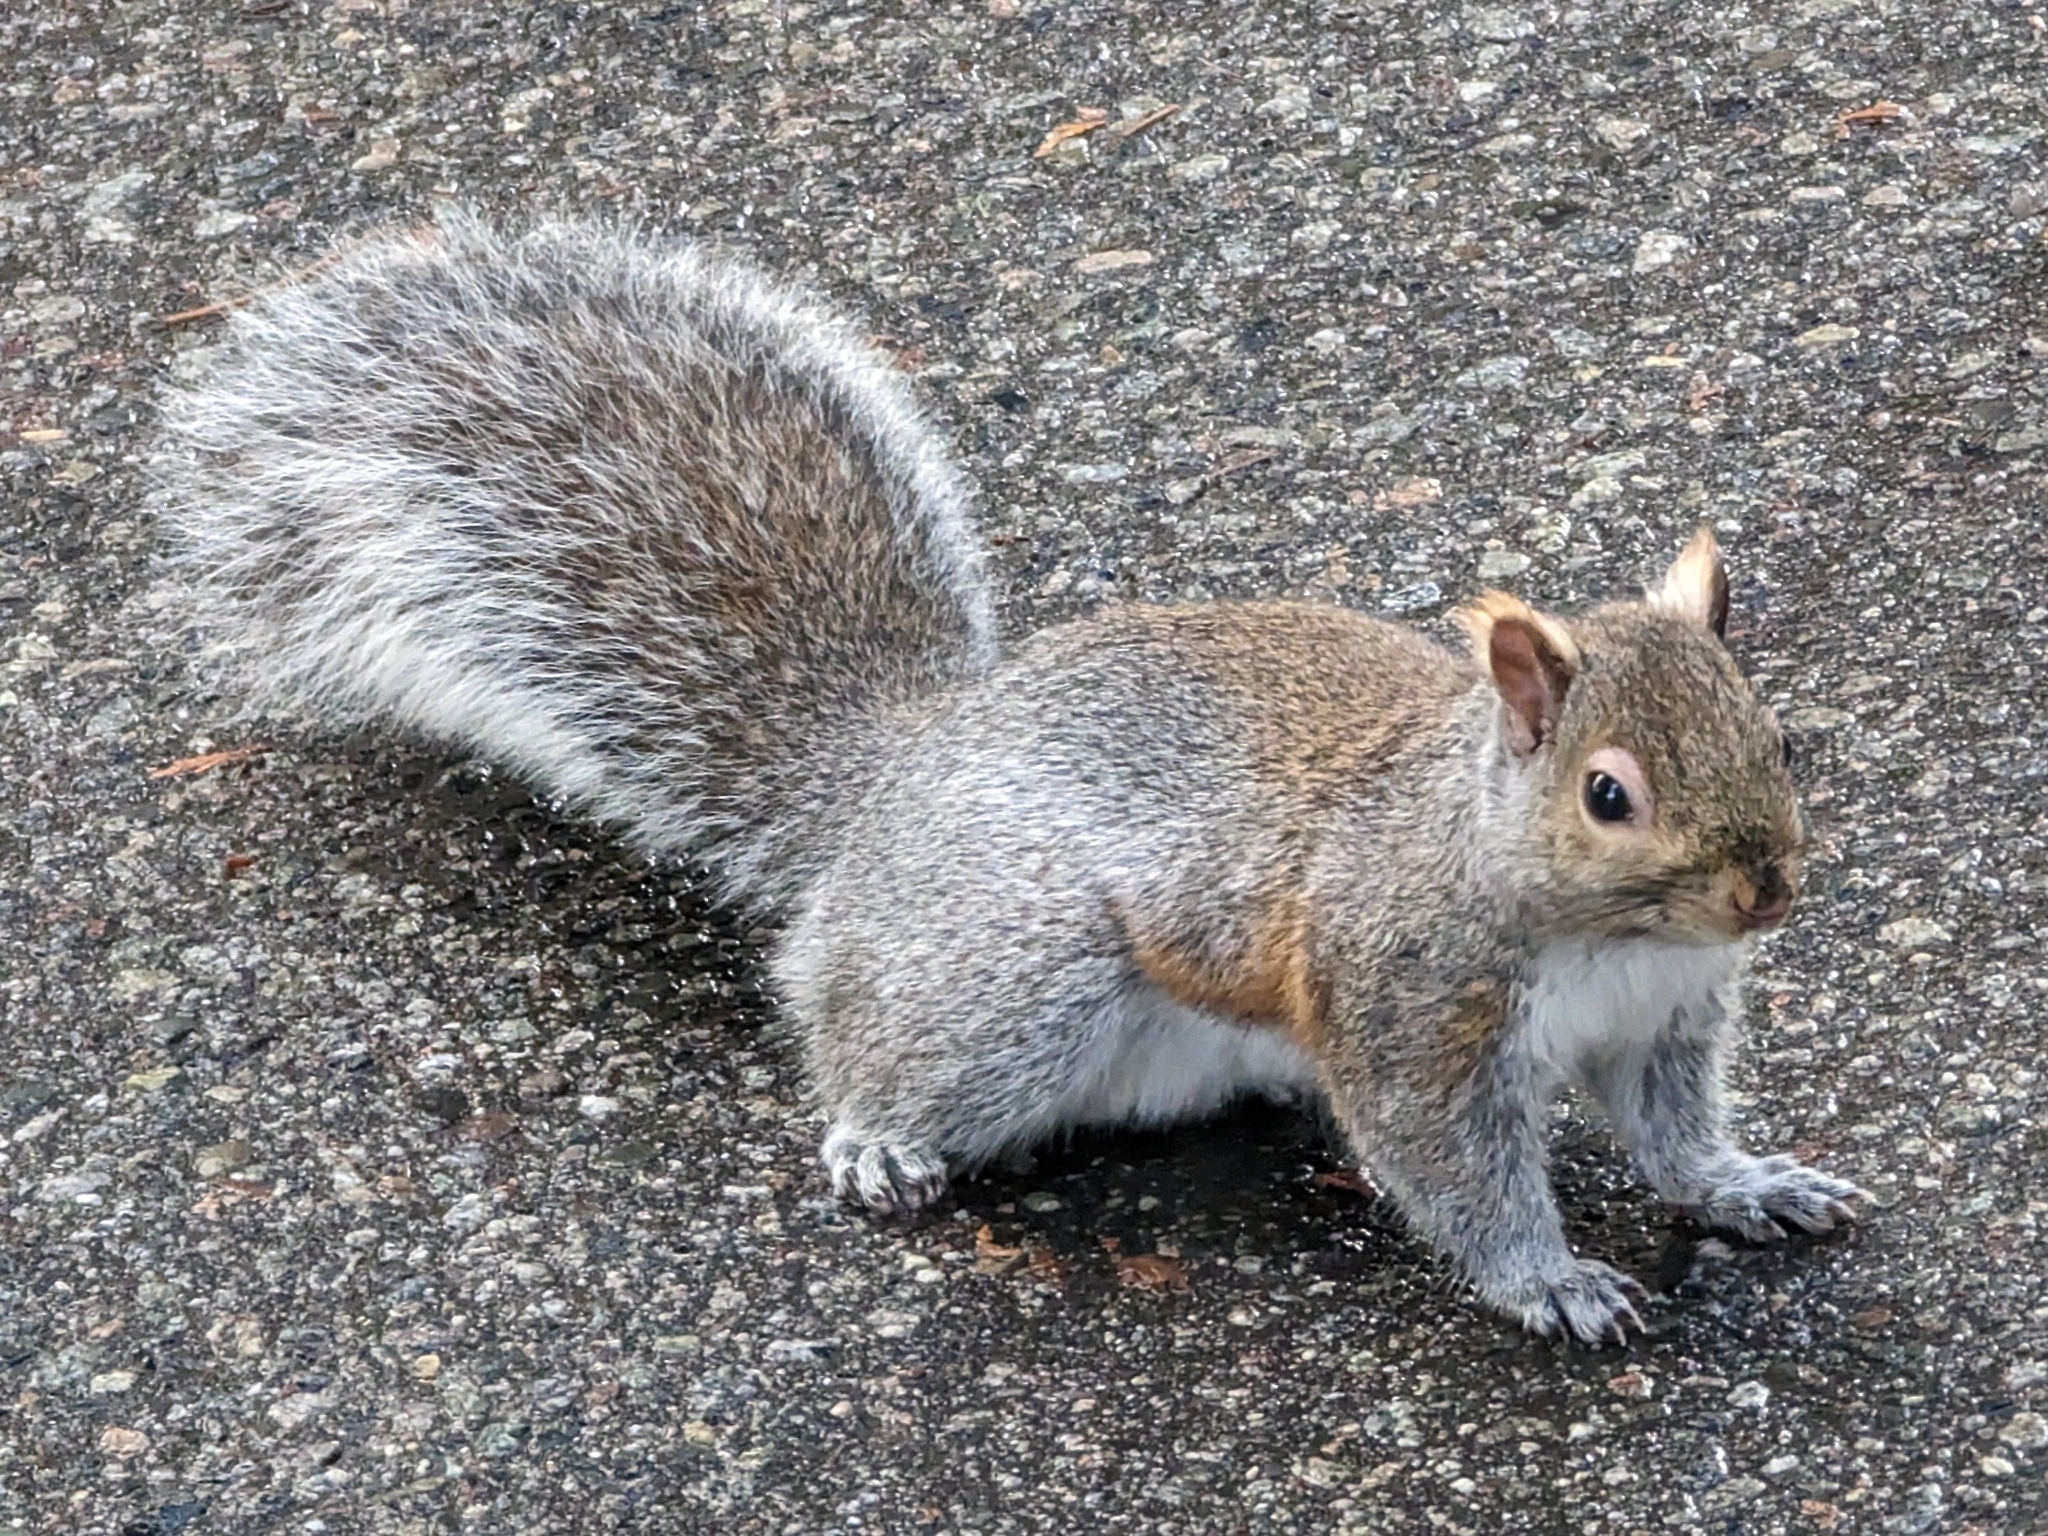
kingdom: Animalia
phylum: Chordata
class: Mammalia
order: Rodentia
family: Sciuridae
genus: Sciurus
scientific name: Sciurus carolinensis
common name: Eastern gray squirrel
